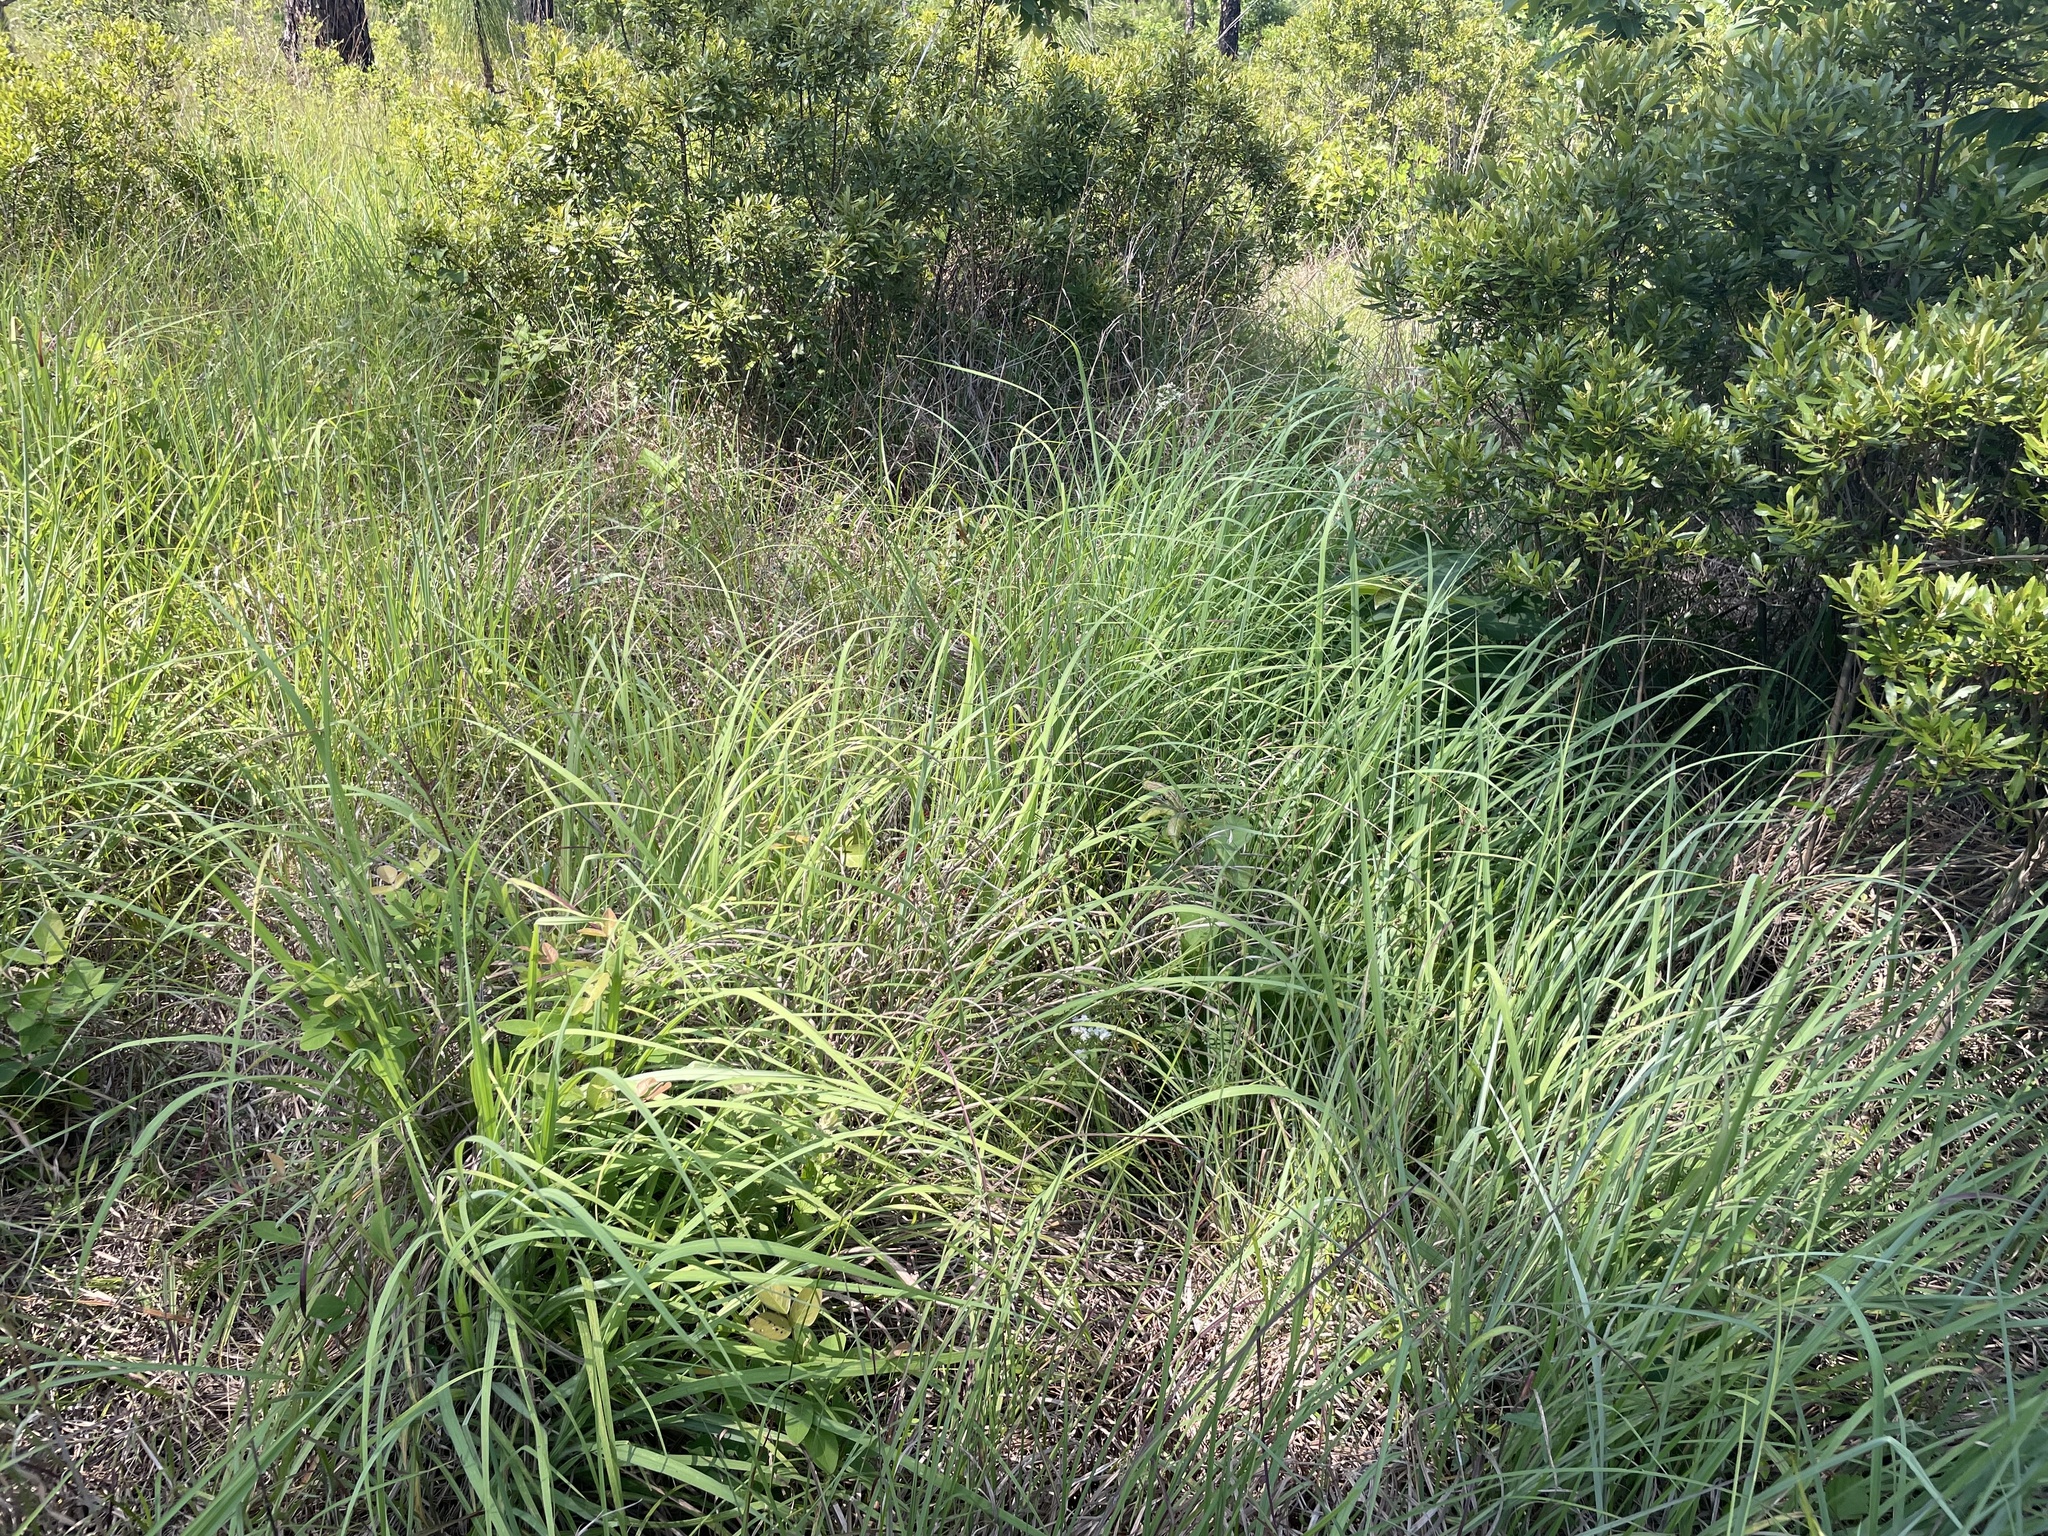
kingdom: Plantae
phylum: Tracheophyta
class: Liliopsida
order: Poales
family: Poaceae
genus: Andropogon
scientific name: Andropogon gerardi
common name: Big bluestem
